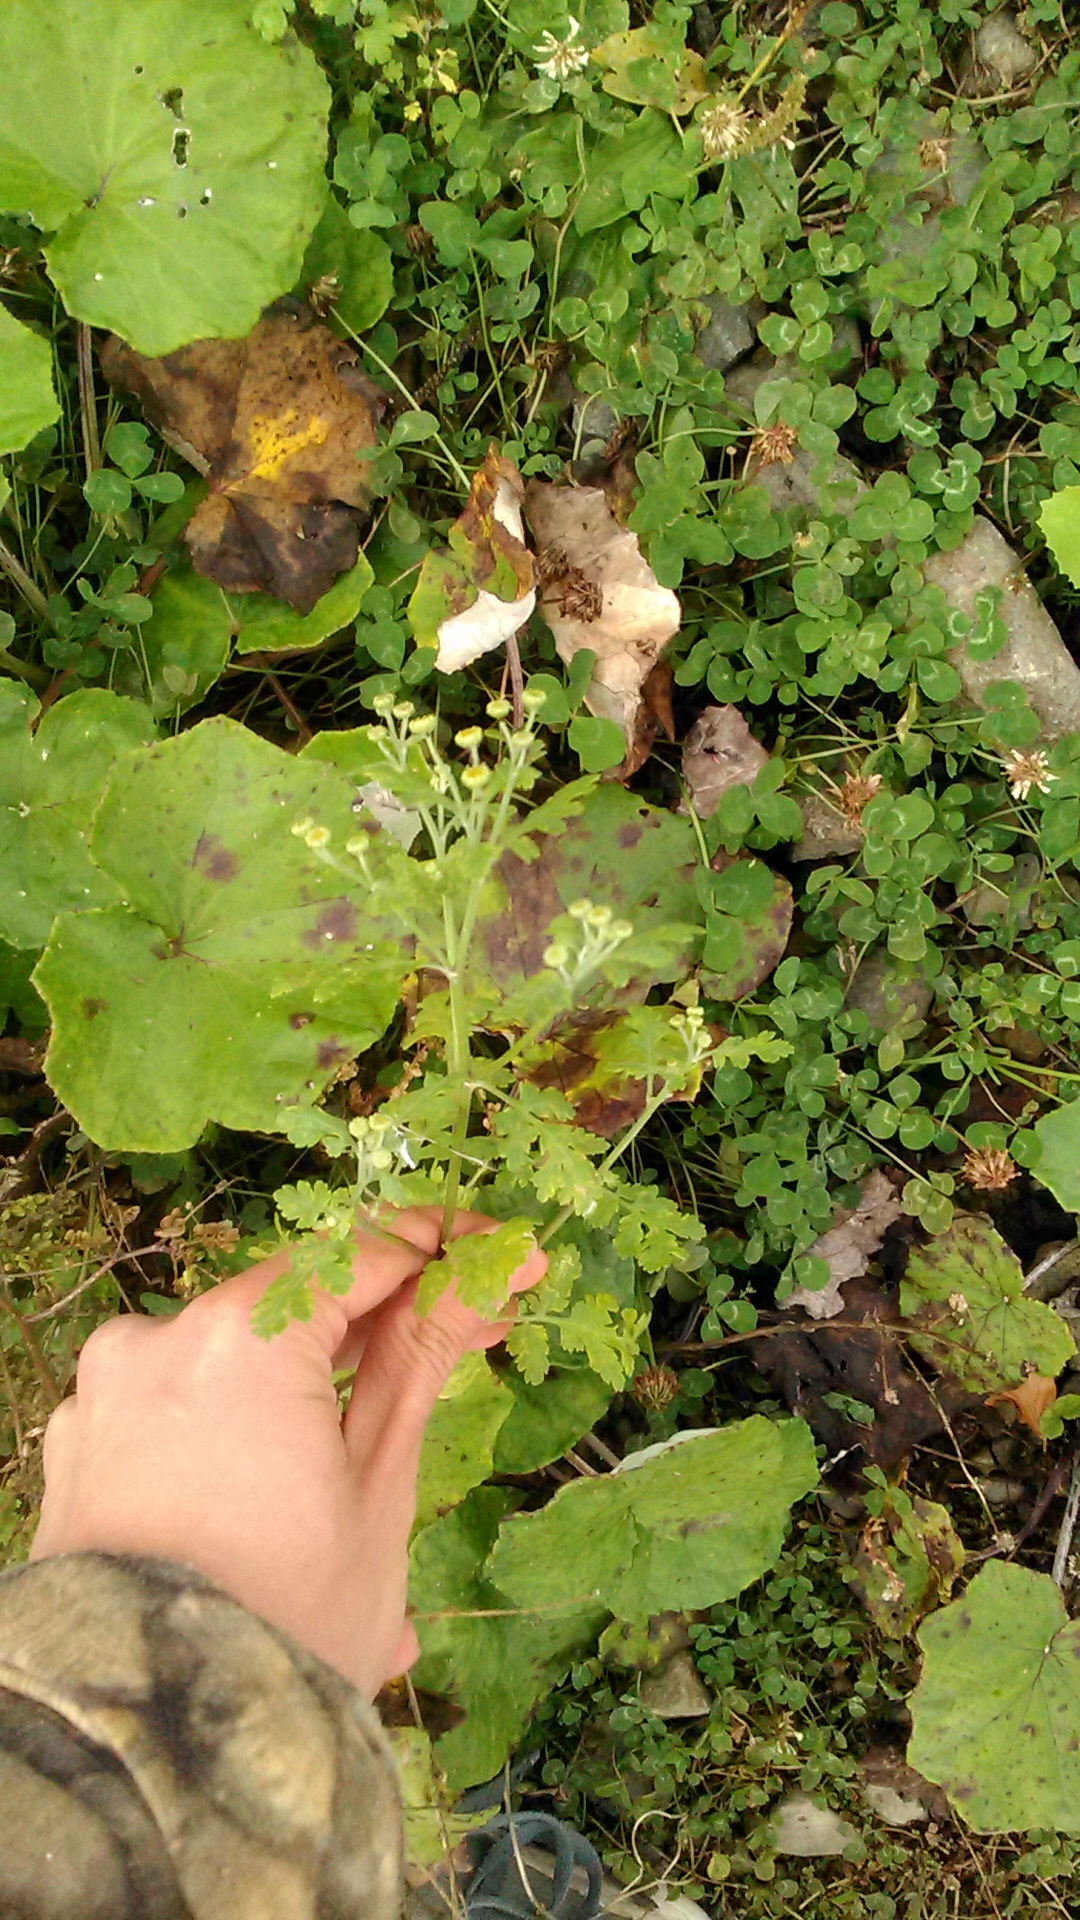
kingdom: Plantae
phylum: Tracheophyta
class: Magnoliopsida
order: Asterales
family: Asteraceae
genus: Tanacetum
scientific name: Tanacetum partheniifolium
